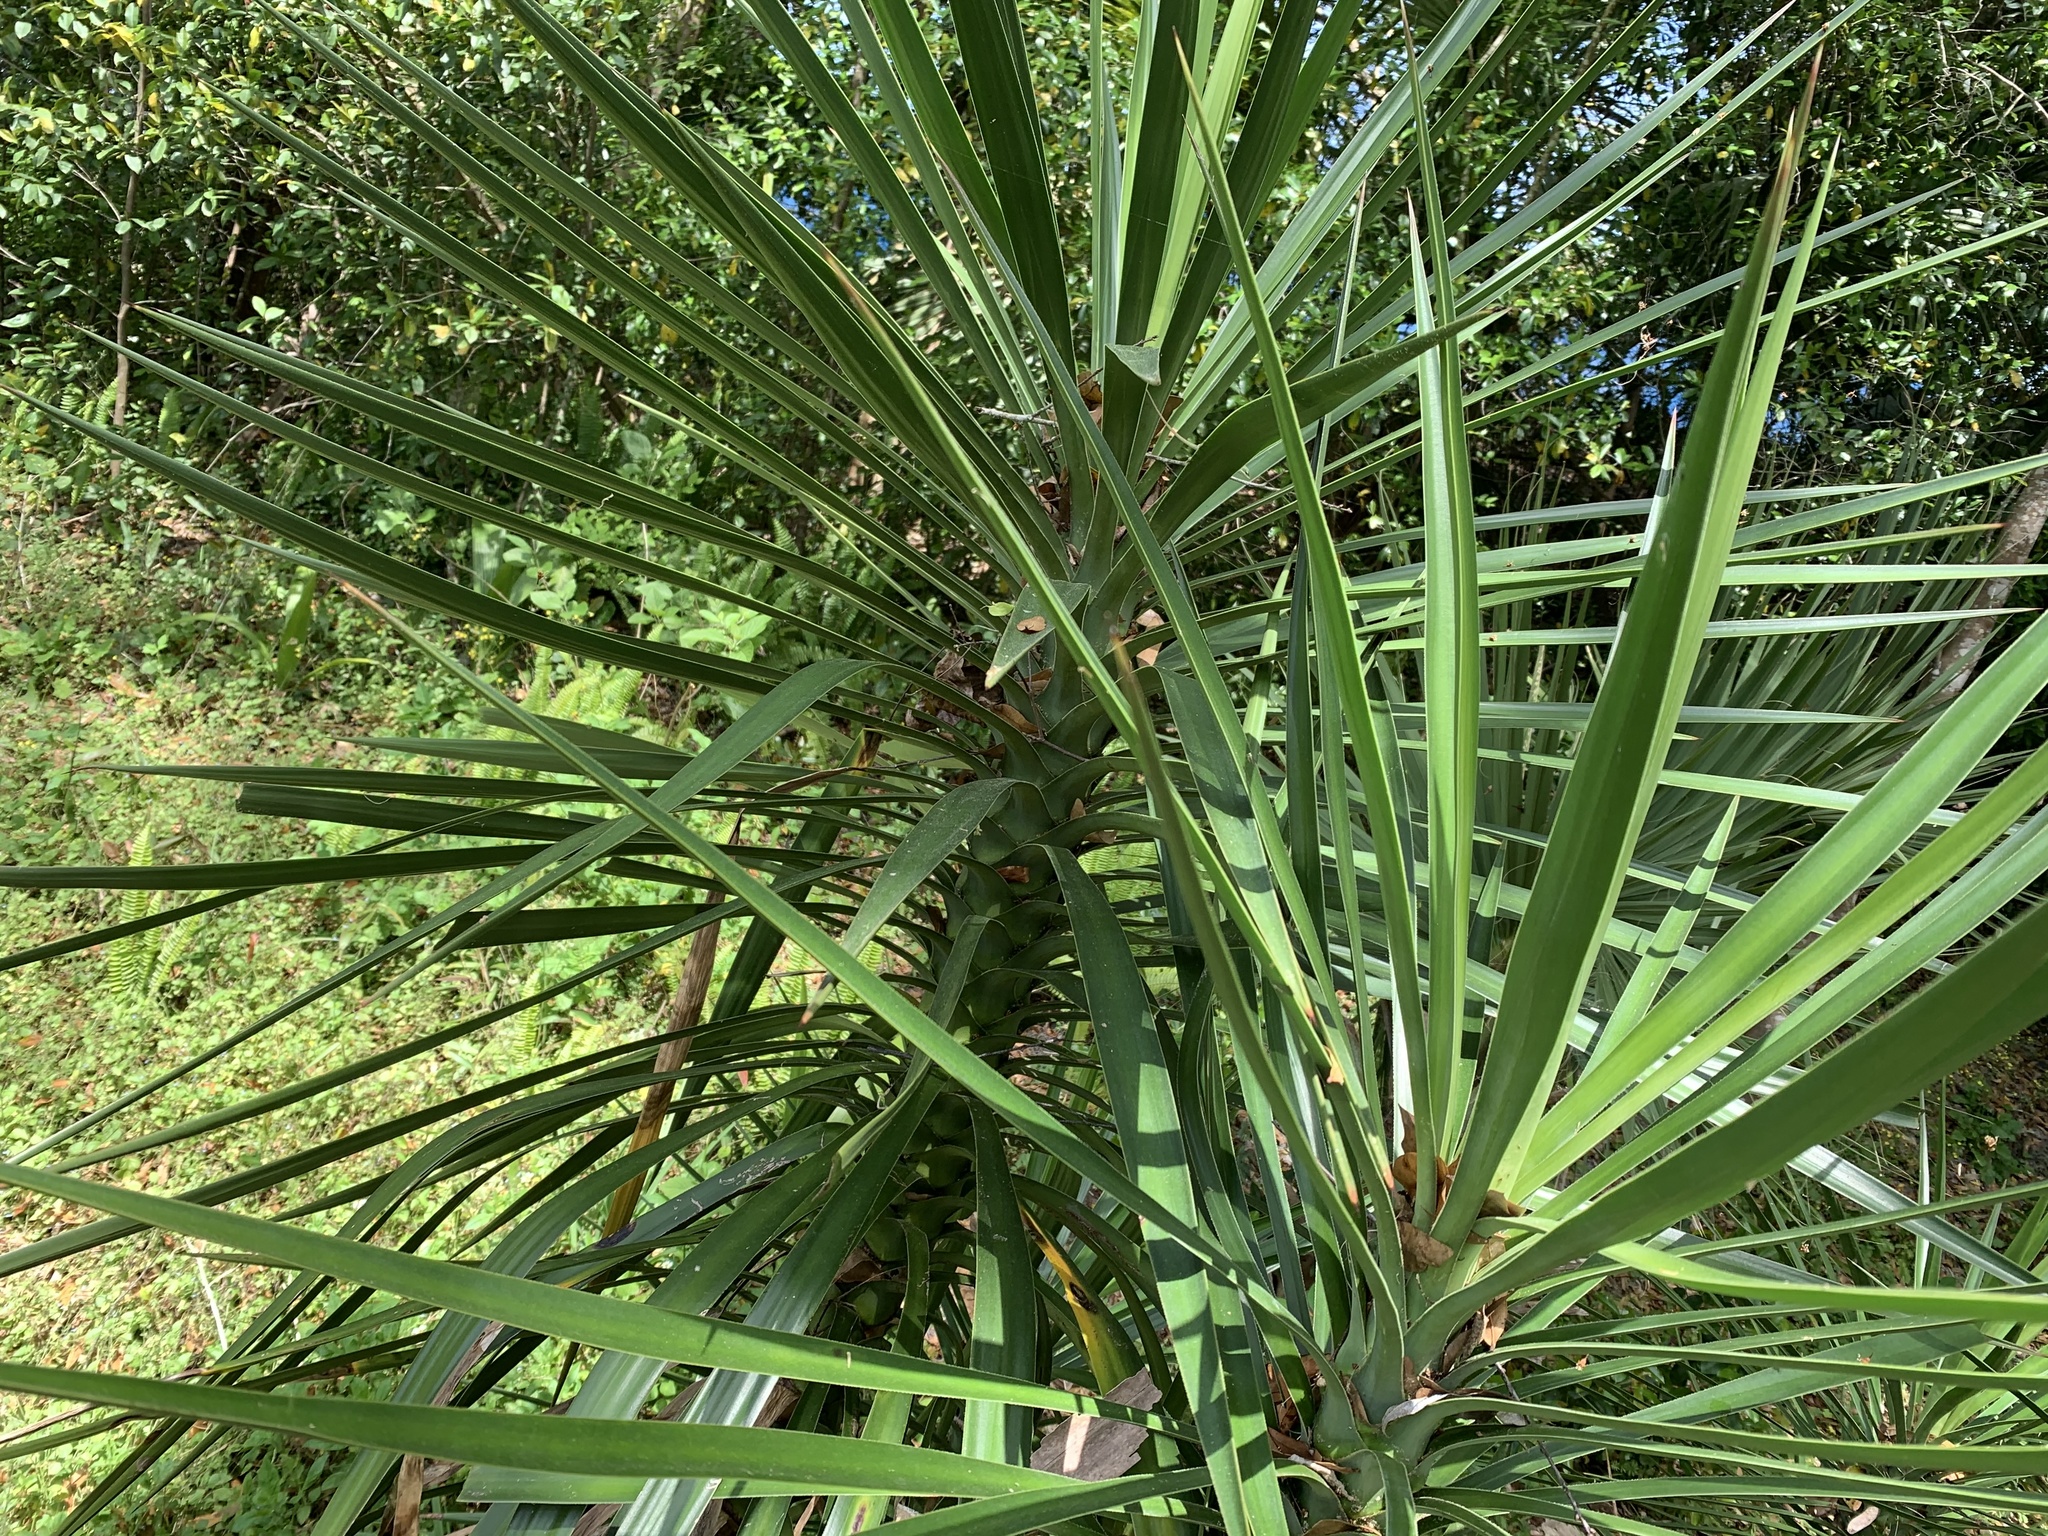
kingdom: Plantae
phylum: Tracheophyta
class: Liliopsida
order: Asparagales
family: Asparagaceae
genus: Yucca
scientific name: Yucca aloifolia
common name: Aloe yucca
